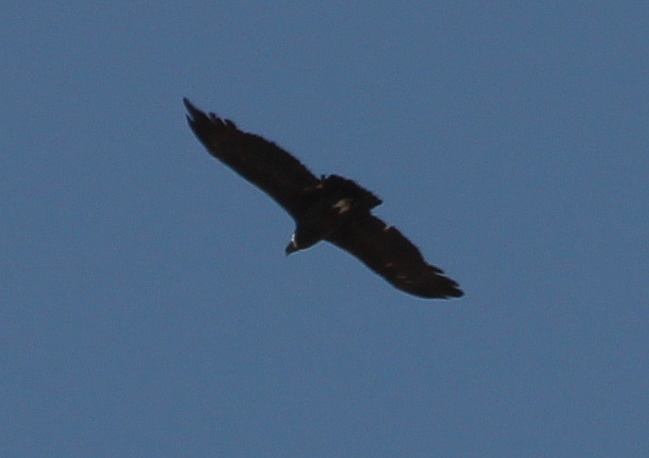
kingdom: Animalia
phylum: Chordata
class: Aves
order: Accipitriformes
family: Cathartidae
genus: Vultur
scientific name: Vultur gryphus
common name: Andean condor
